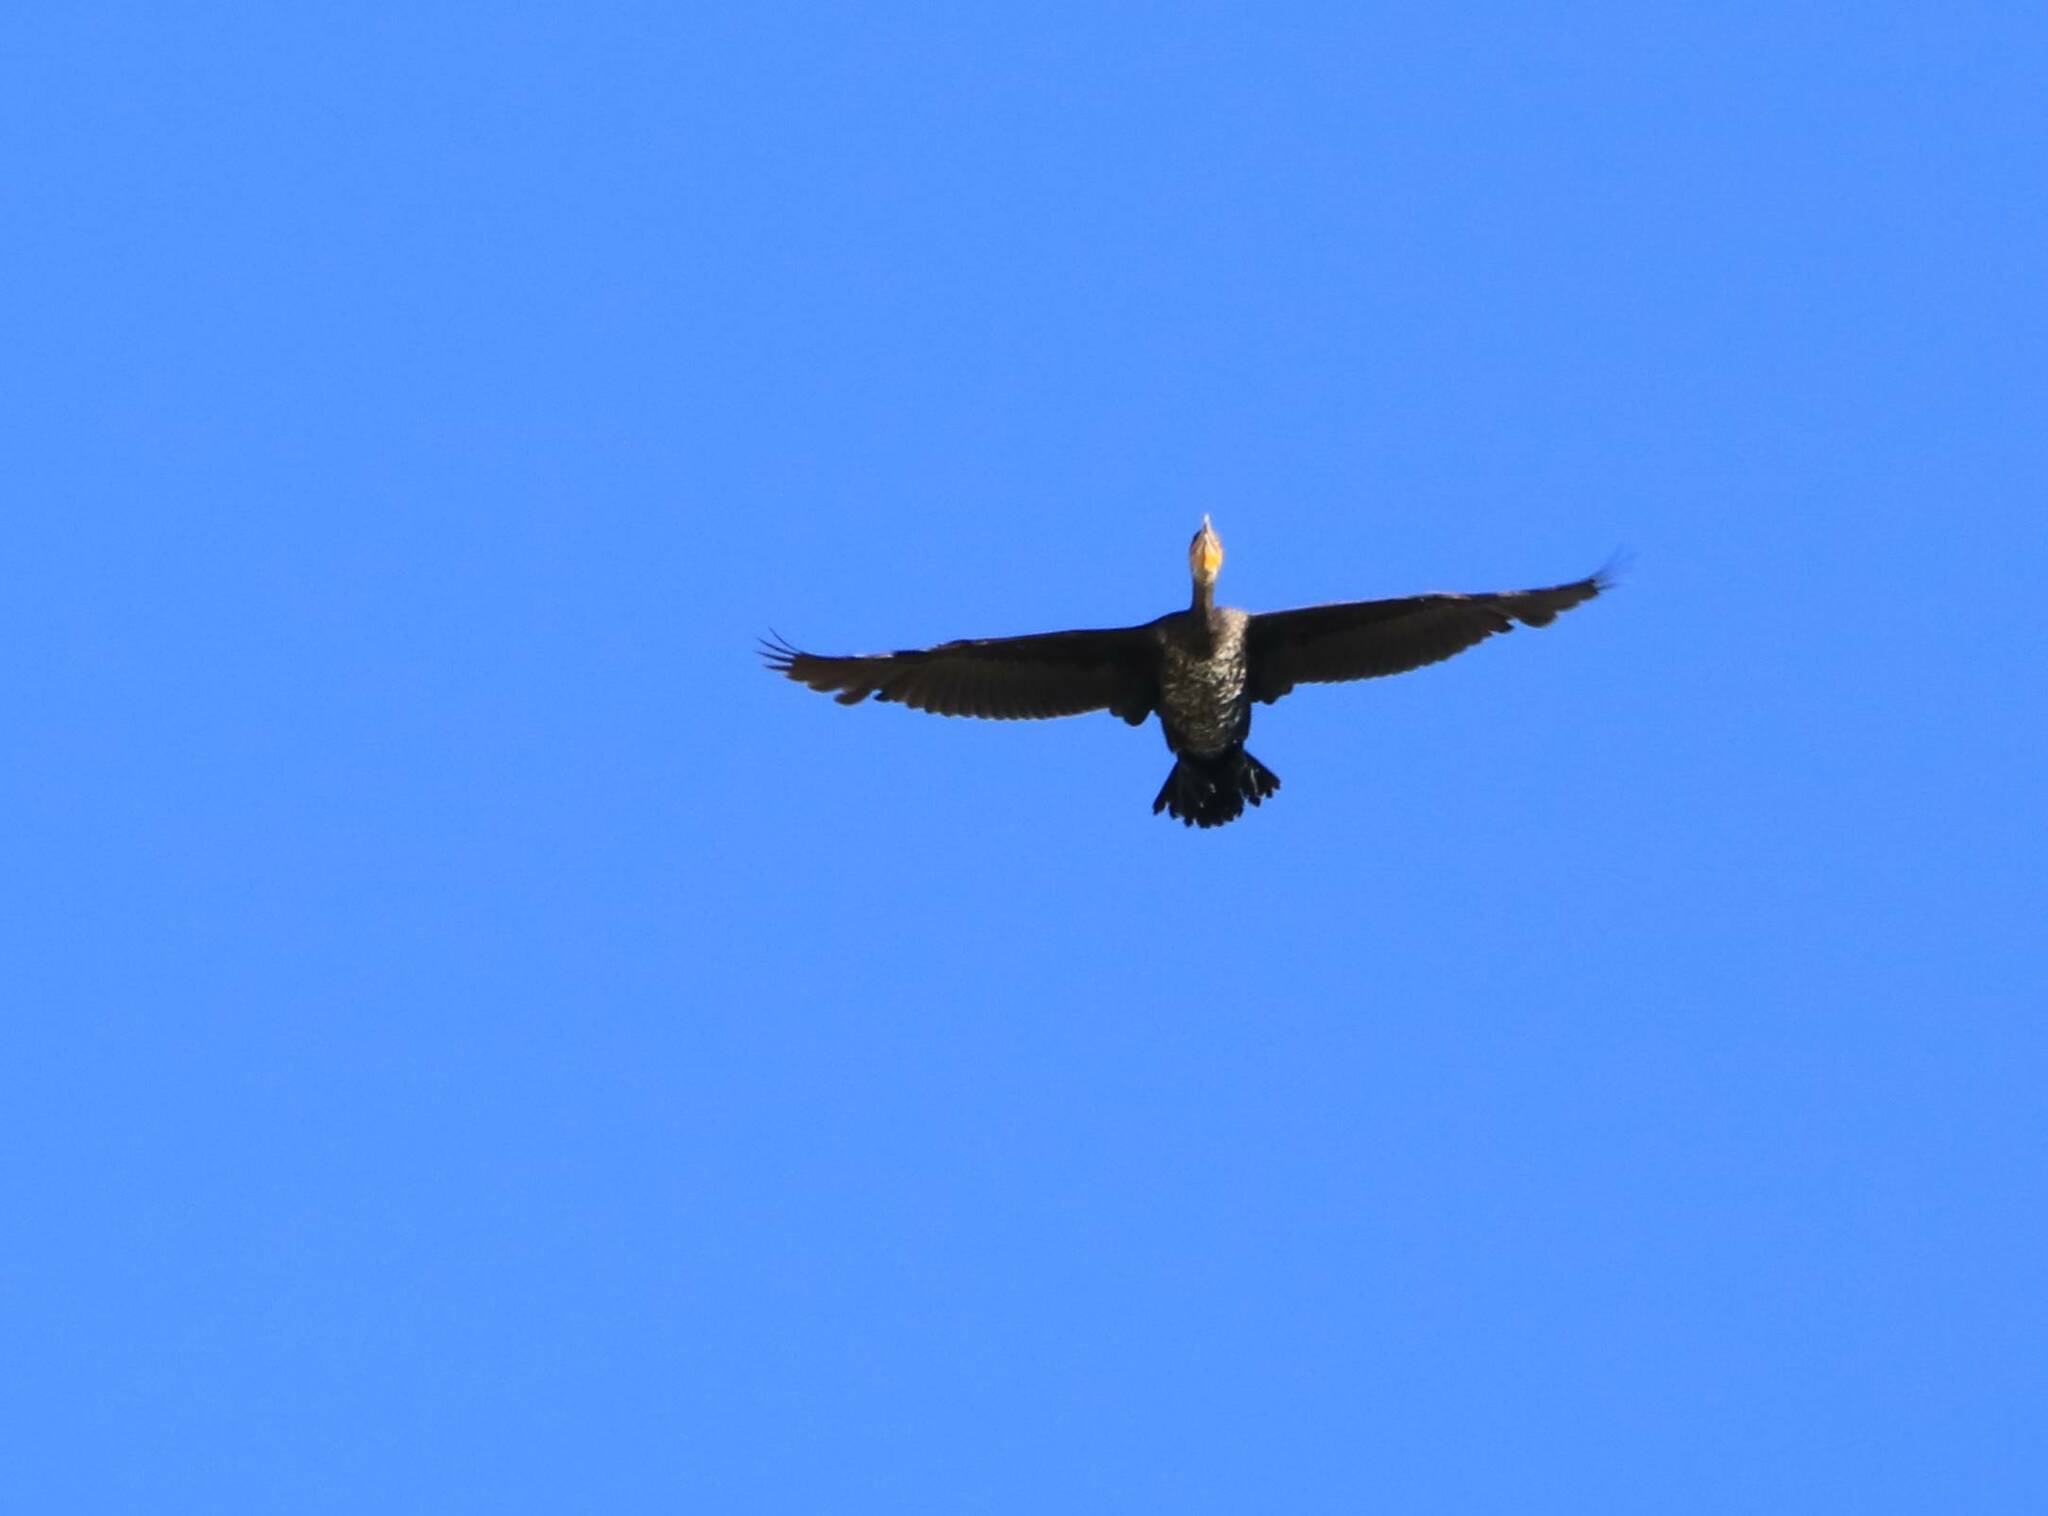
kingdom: Animalia
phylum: Chordata
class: Aves
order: Suliformes
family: Phalacrocoracidae
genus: Phalacrocorax
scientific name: Phalacrocorax carbo
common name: Great cormorant
